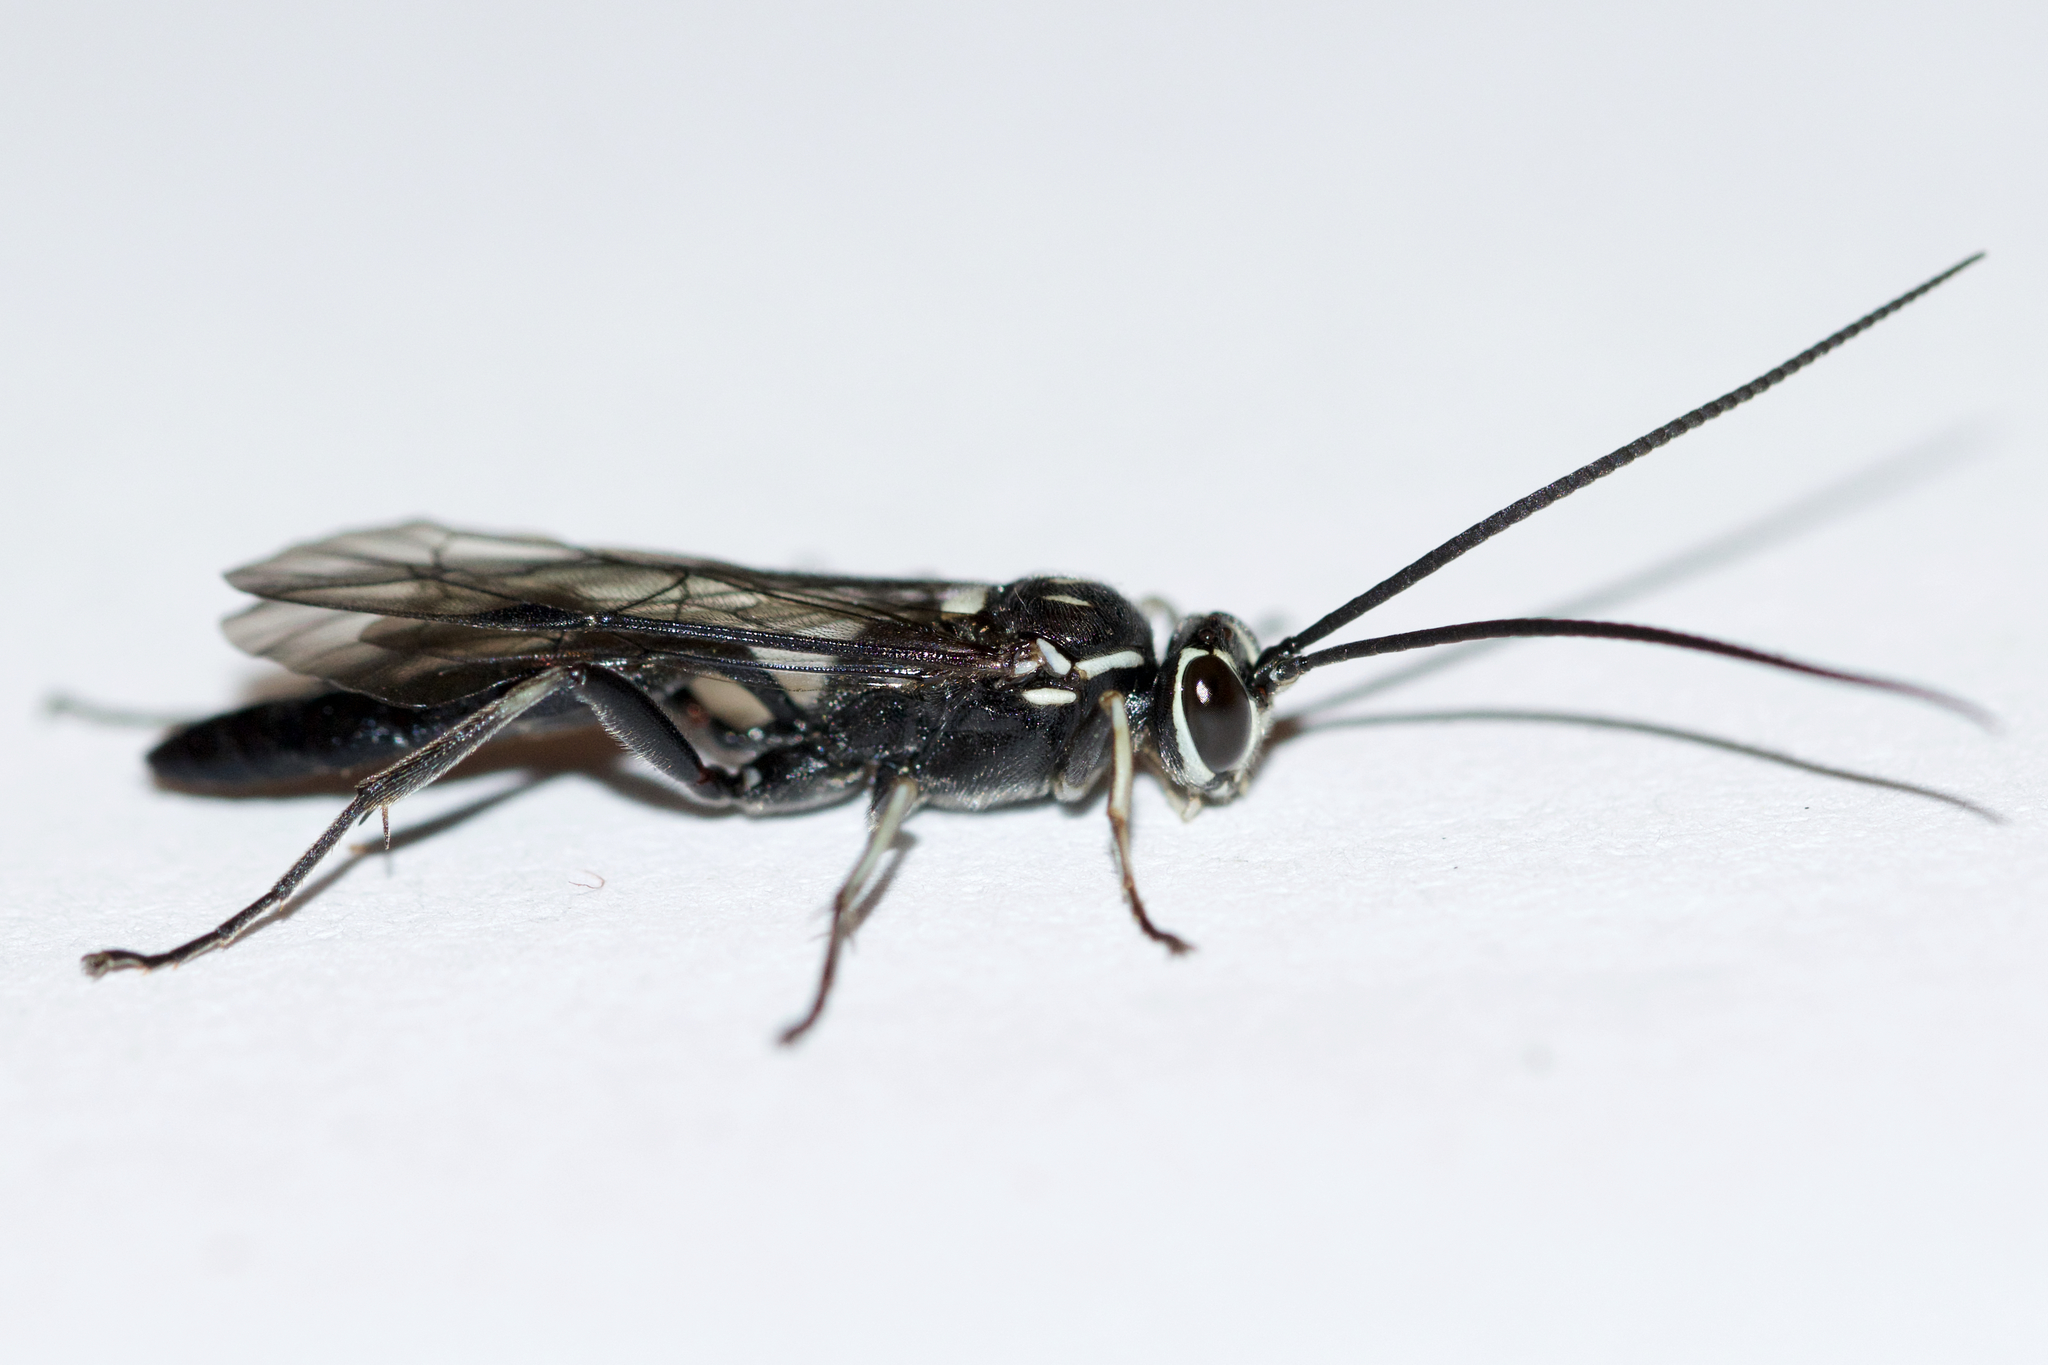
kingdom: Animalia
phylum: Arthropoda
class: Insecta
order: Hymenoptera
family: Ichneumonidae
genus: Coelichneumon
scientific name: Coelichneumon azotus
